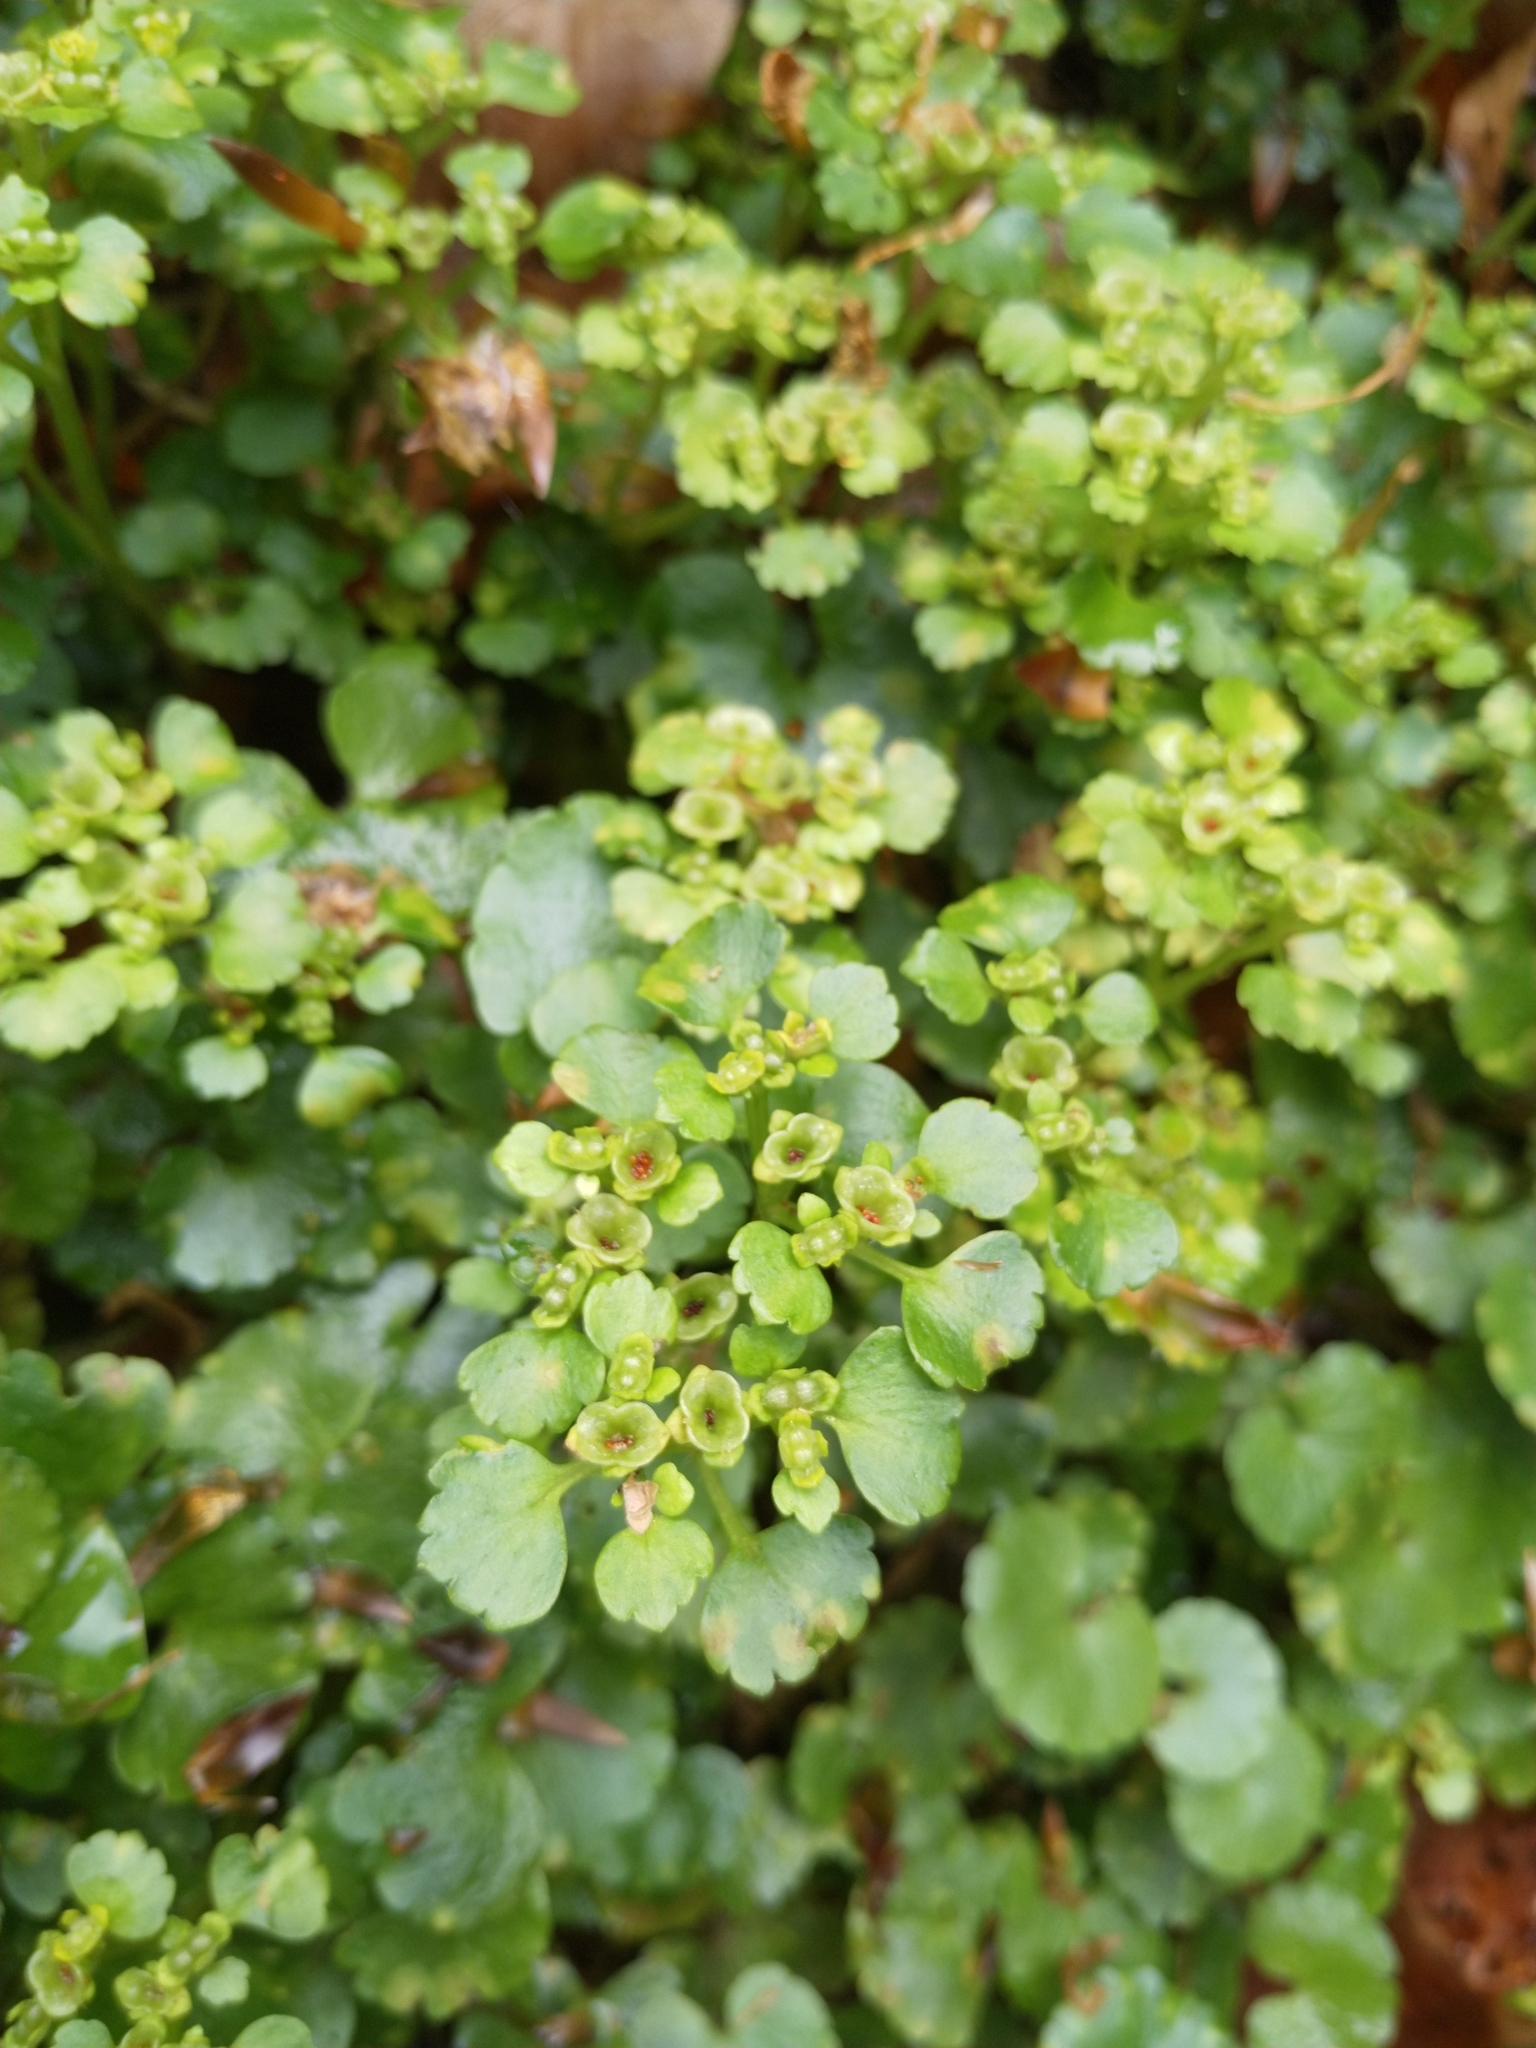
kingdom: Plantae
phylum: Tracheophyta
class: Magnoliopsida
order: Saxifragales
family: Saxifragaceae
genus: Chrysosplenium
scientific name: Chrysosplenium alternifolium
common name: Alternate-leaved golden-saxifrage
